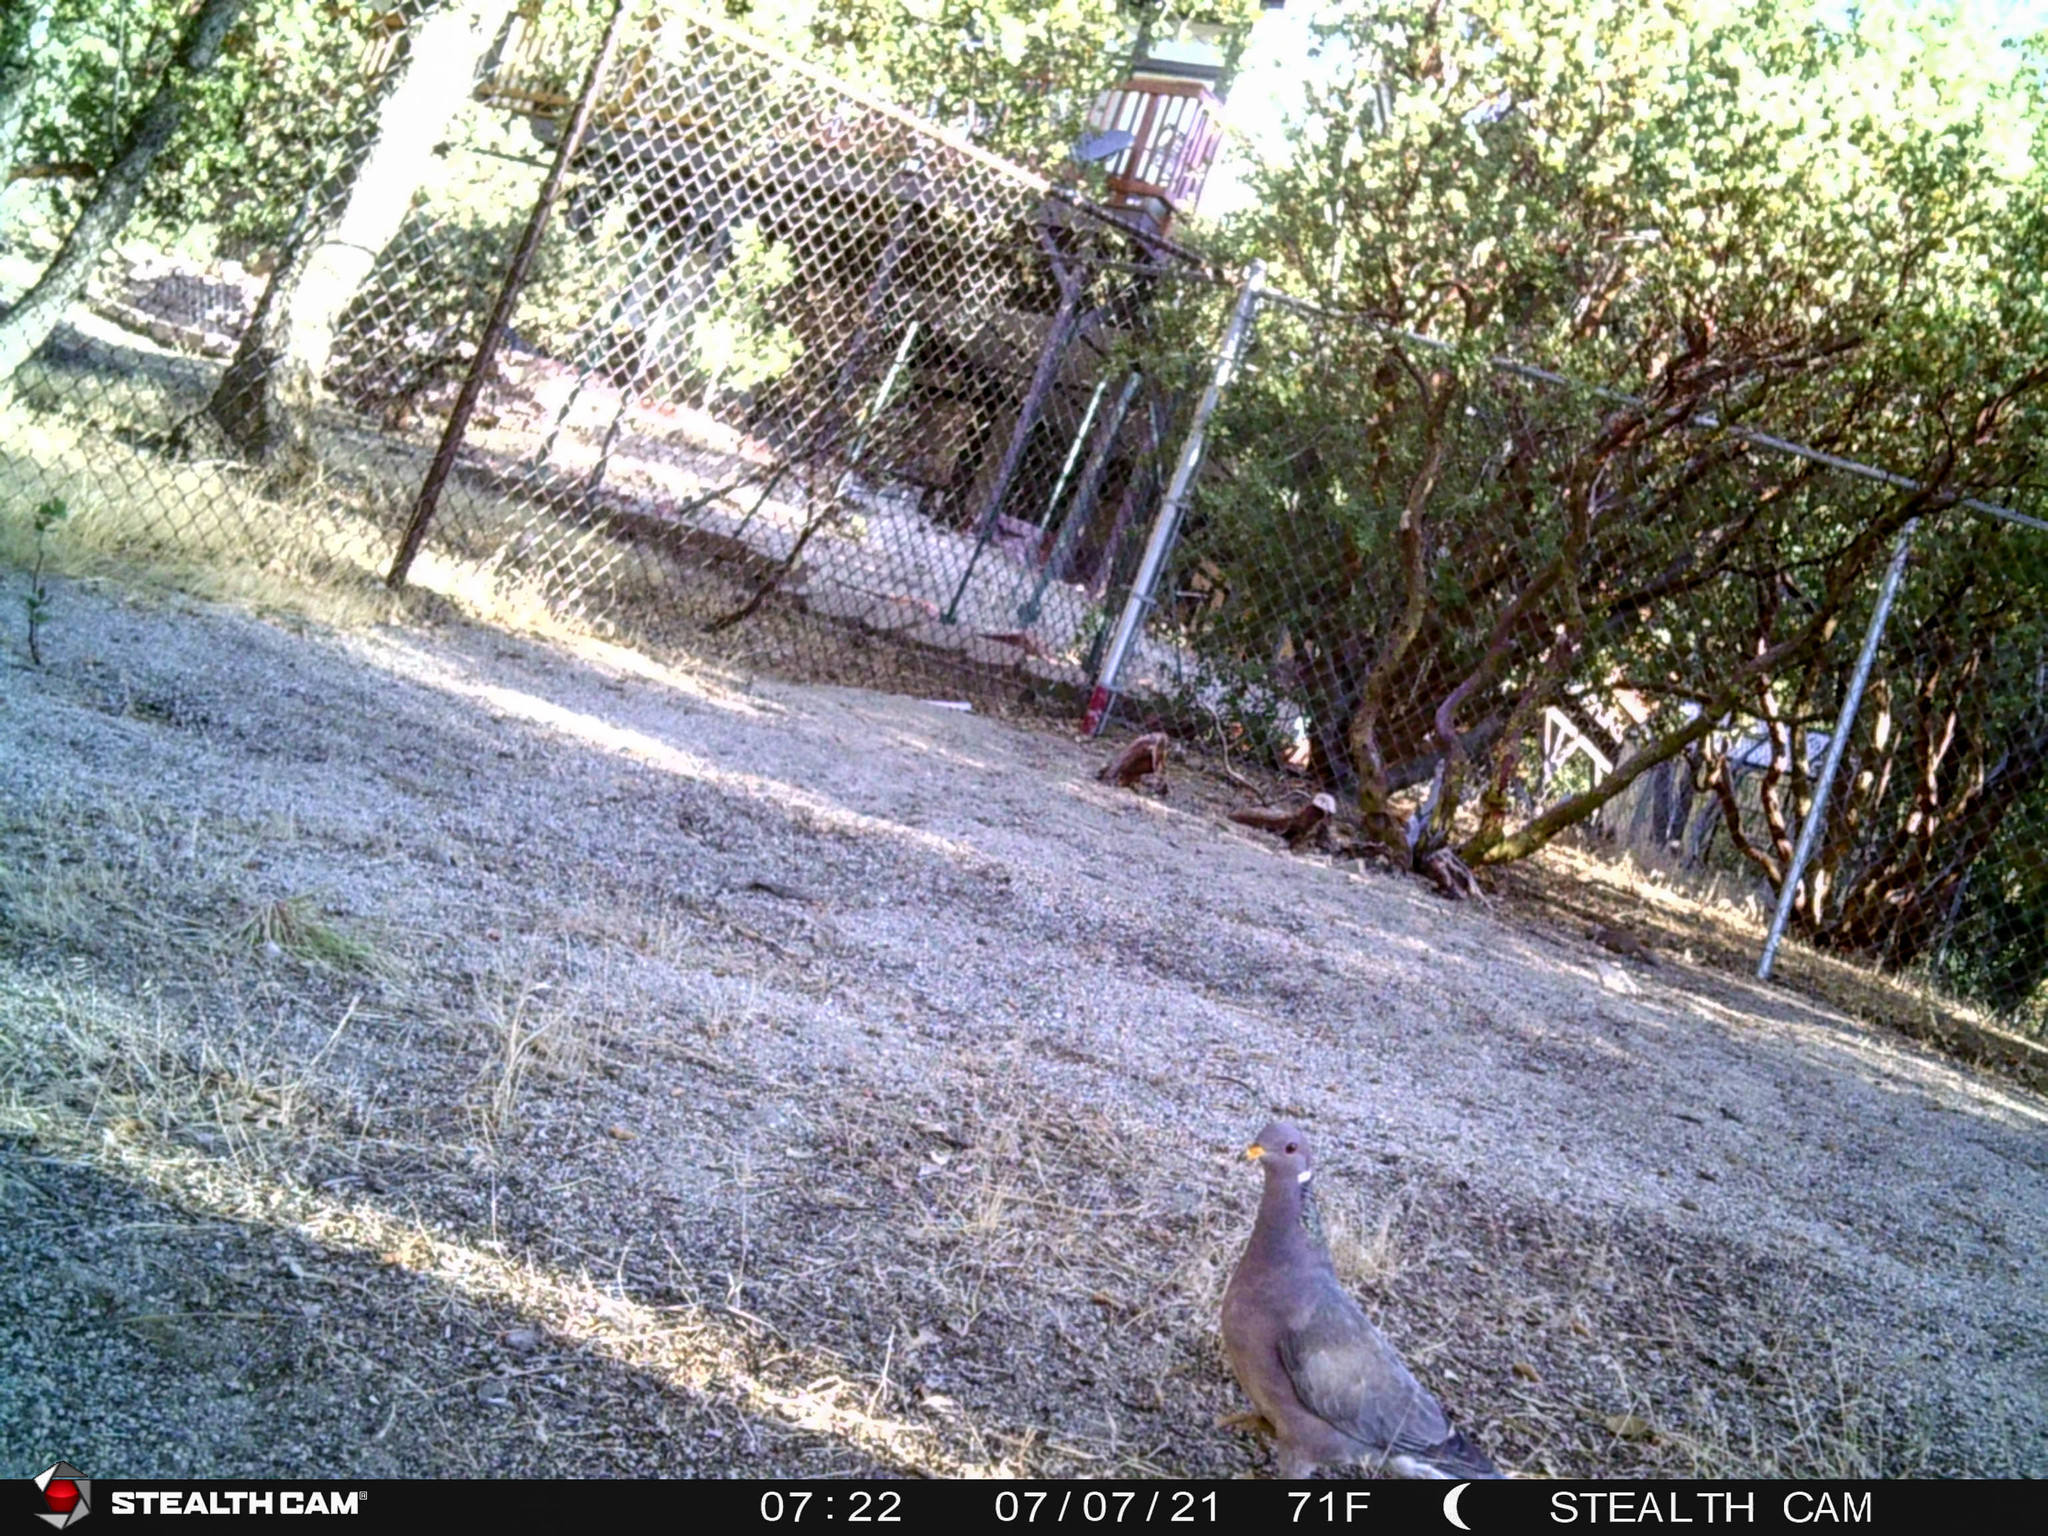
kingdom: Animalia
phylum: Chordata
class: Aves
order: Columbiformes
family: Columbidae
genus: Patagioenas
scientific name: Patagioenas fasciata
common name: Band-tailed pigeon
